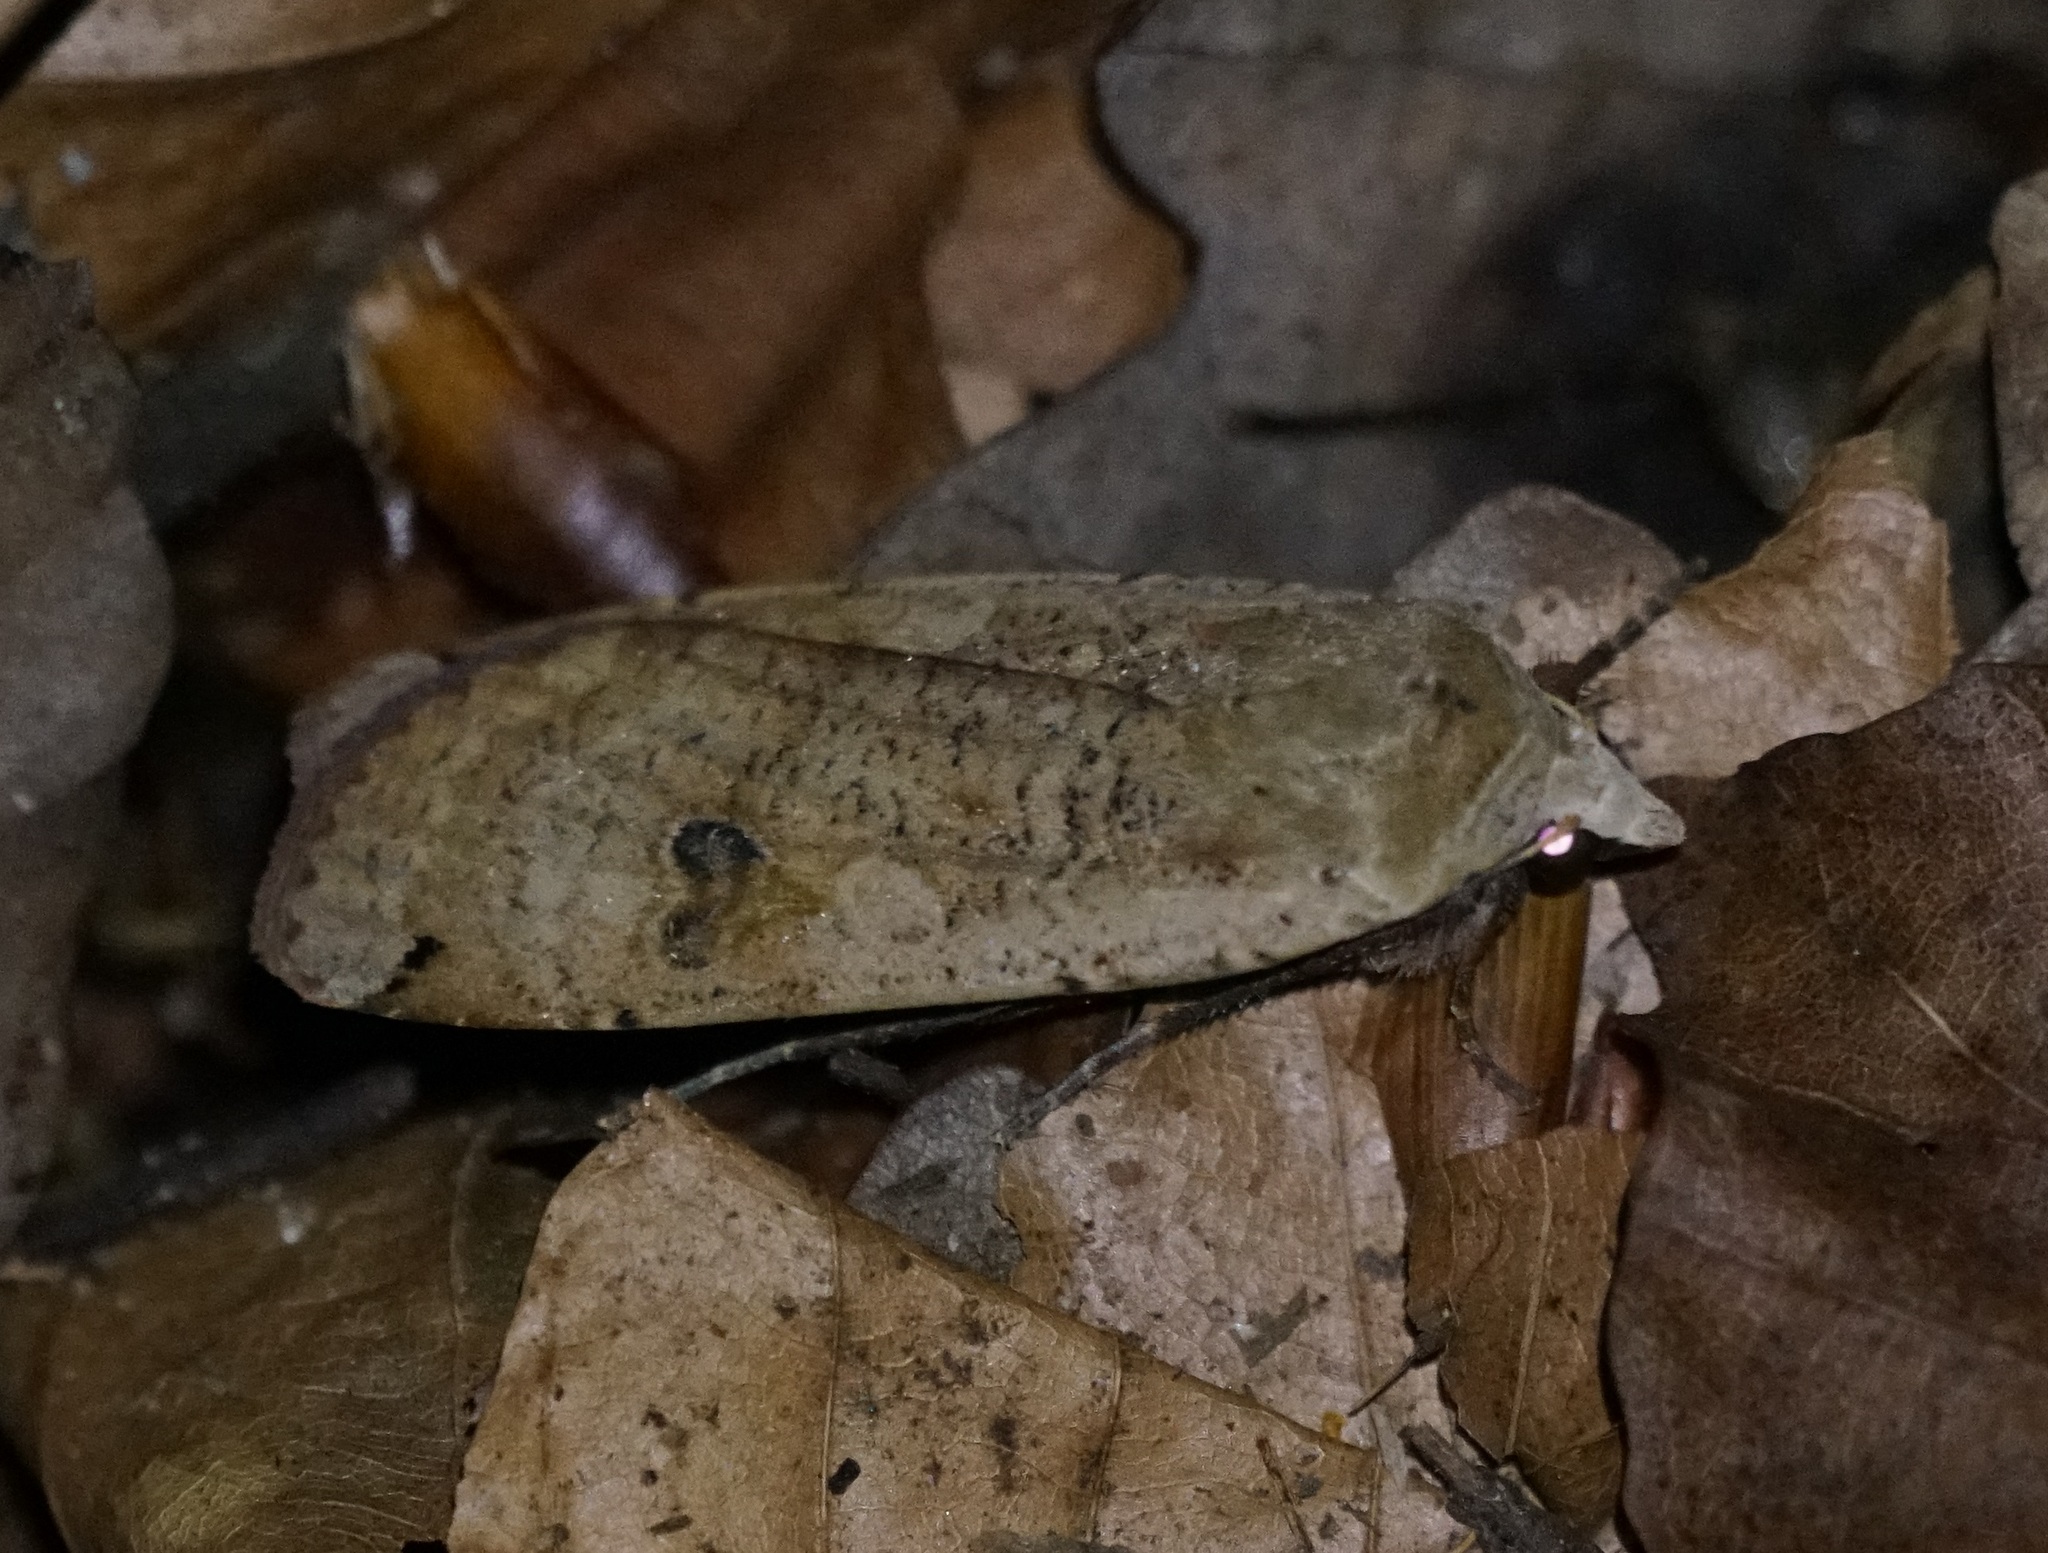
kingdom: Animalia
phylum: Arthropoda
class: Insecta
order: Lepidoptera
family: Noctuidae
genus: Noctua
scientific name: Noctua pronuba
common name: Large yellow underwing
